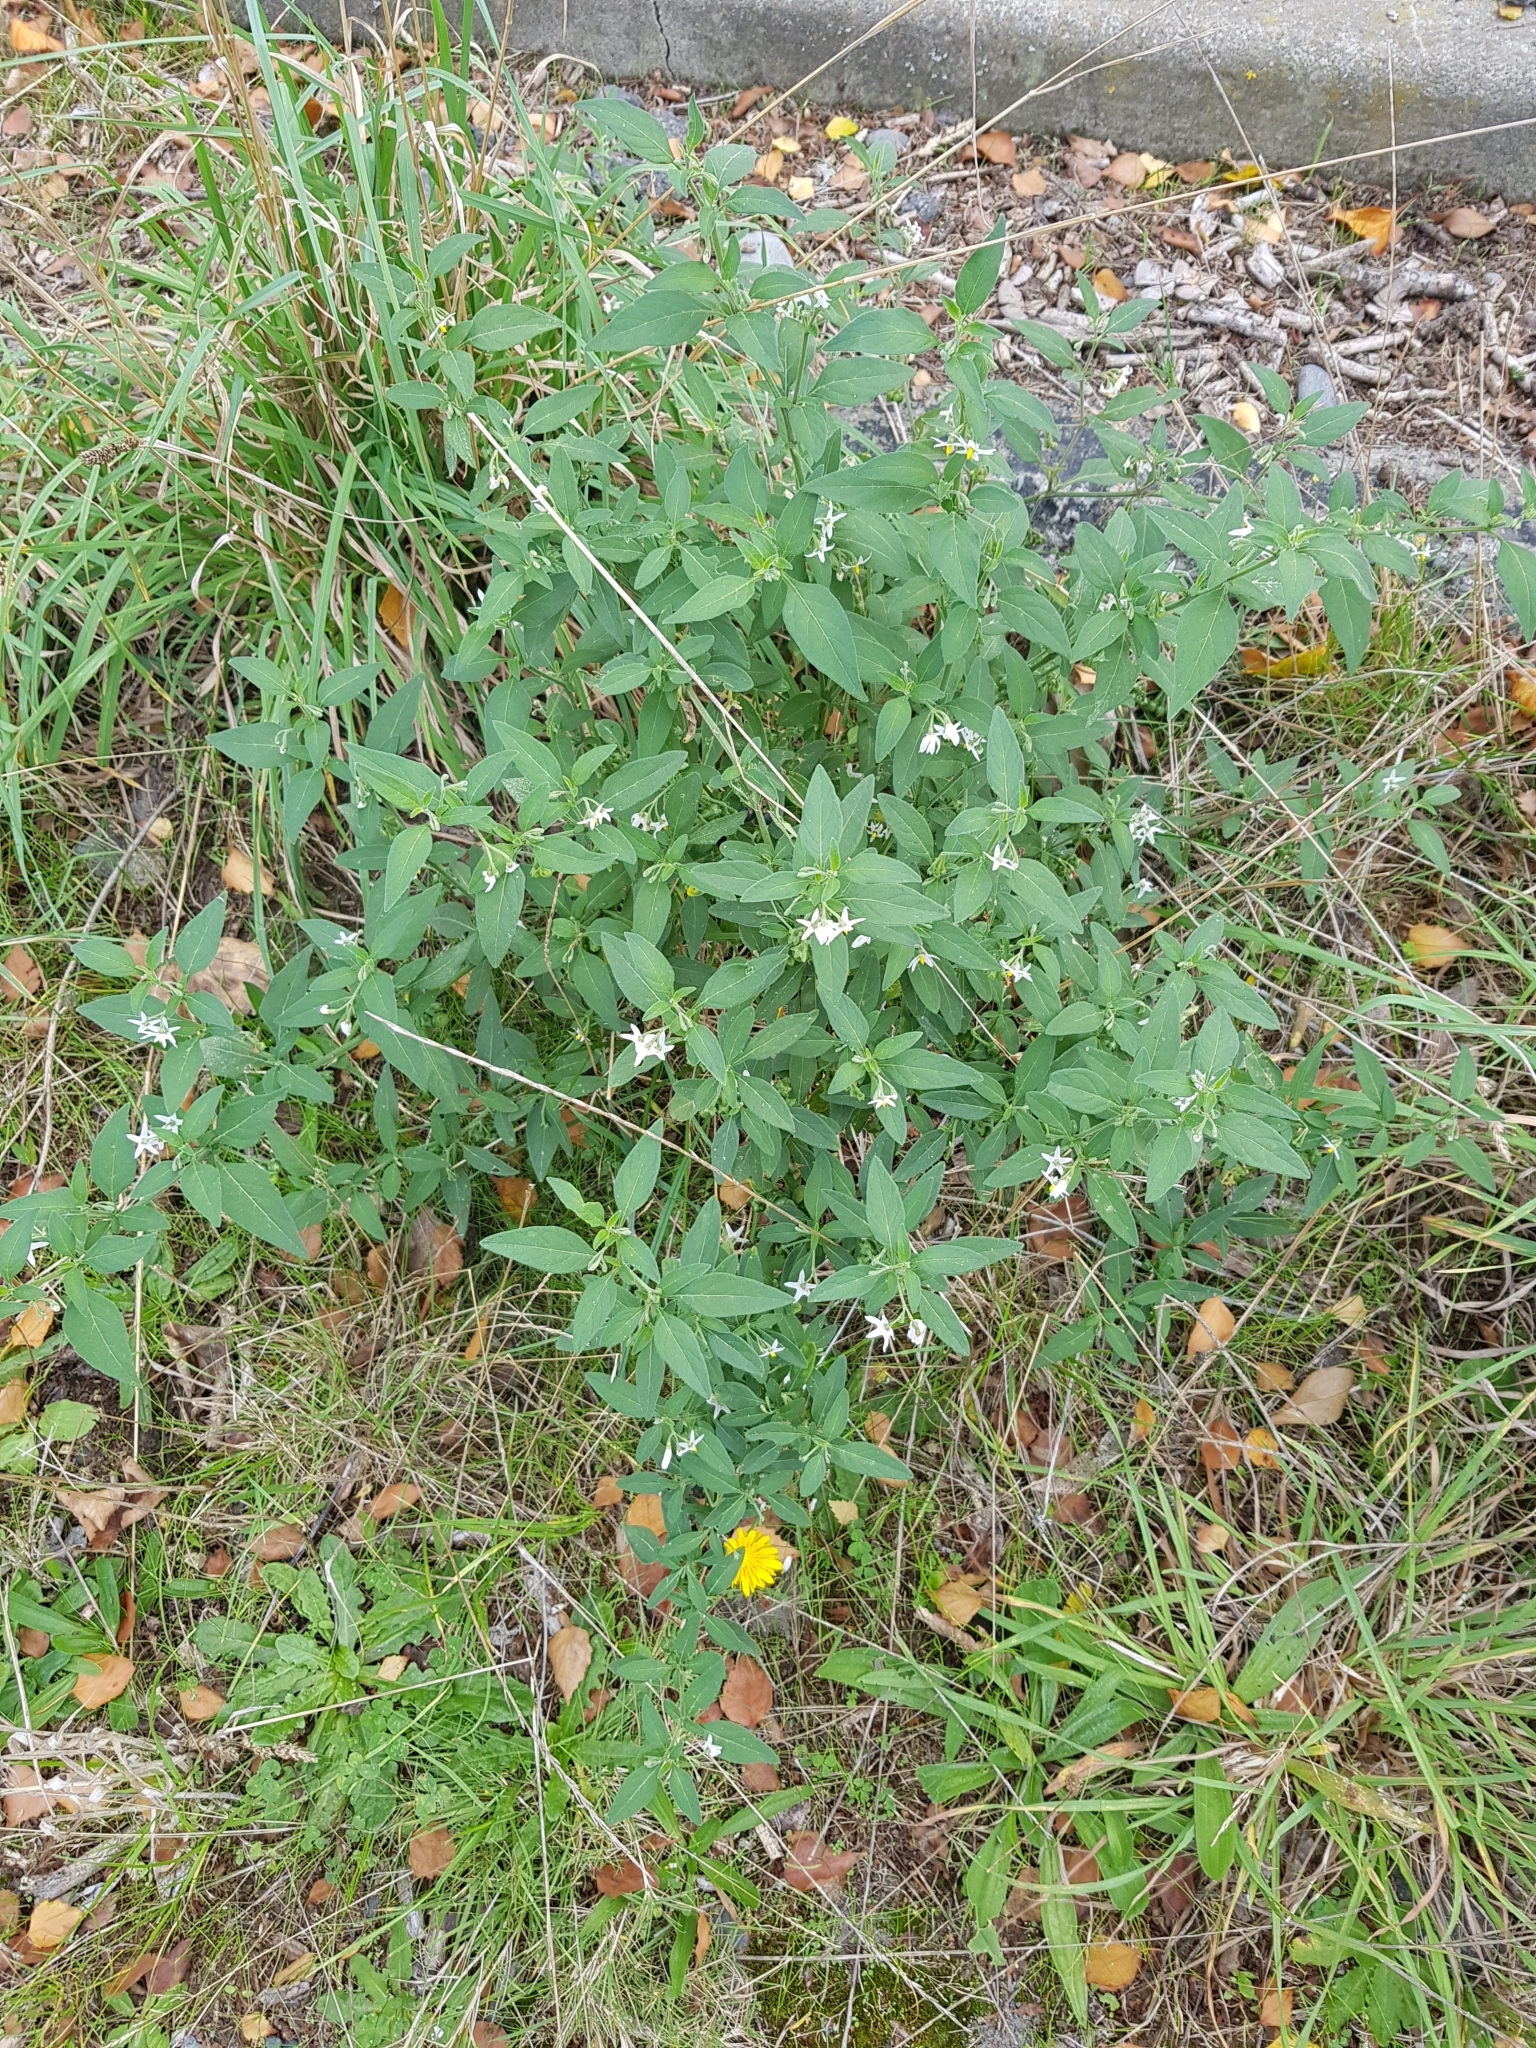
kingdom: Plantae
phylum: Tracheophyta
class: Magnoliopsida
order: Solanales
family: Solanaceae
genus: Solanum
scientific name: Solanum chenopodioides
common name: Tall nightshade
